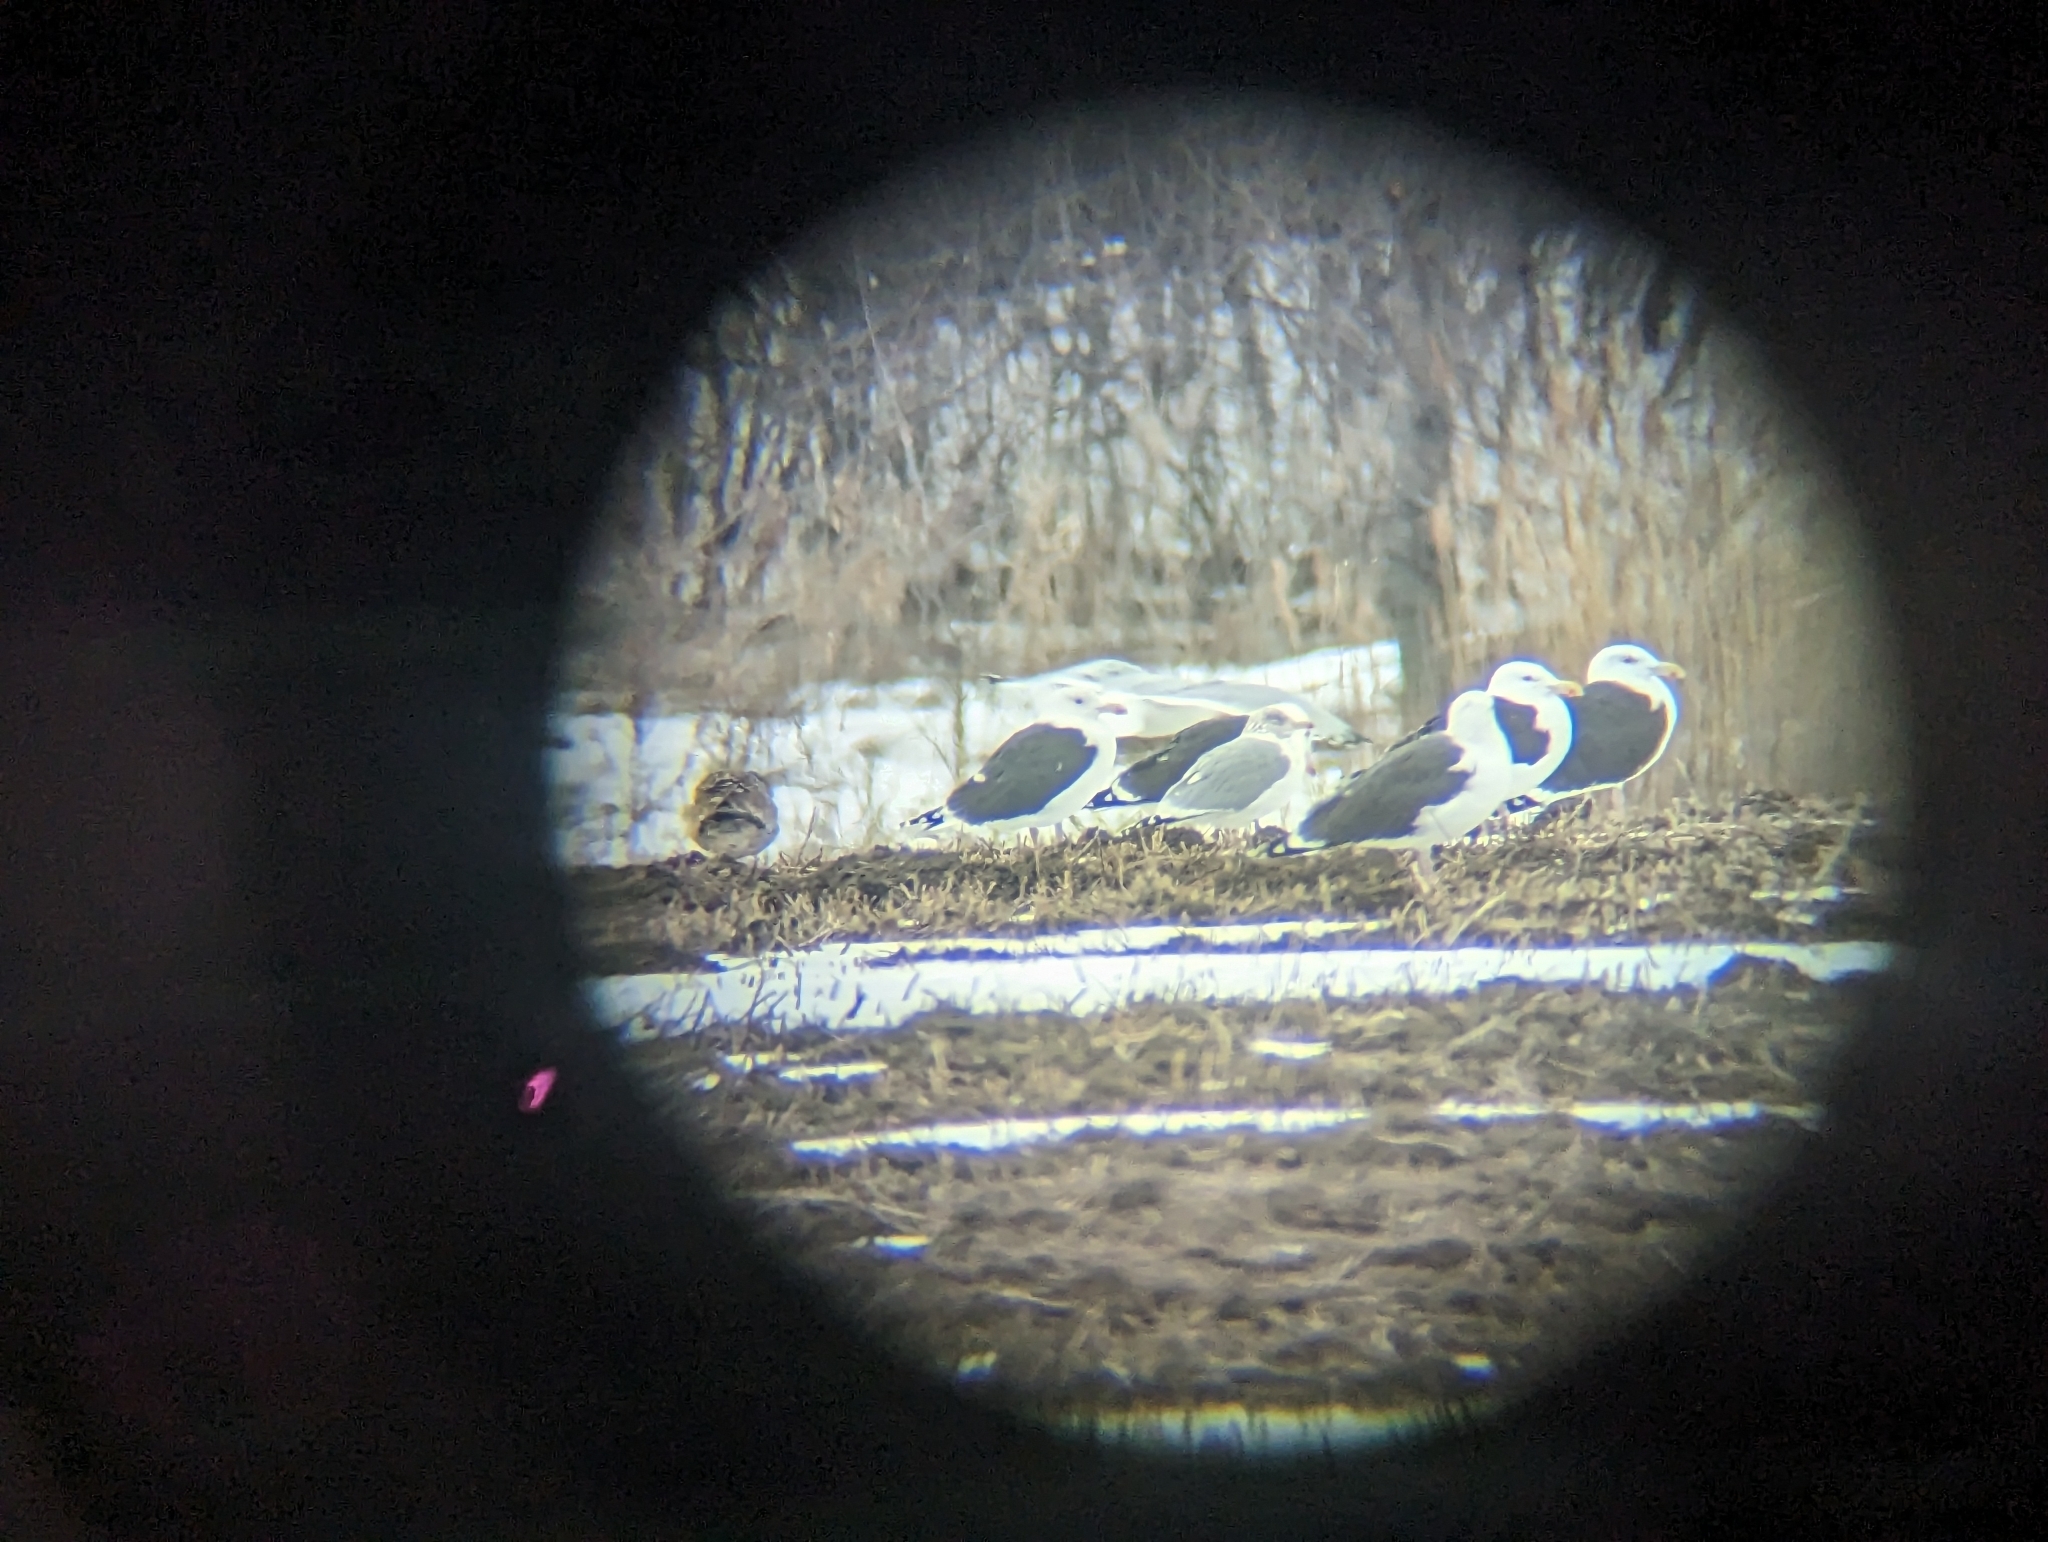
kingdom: Animalia
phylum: Chordata
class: Aves
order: Charadriiformes
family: Laridae
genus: Larus
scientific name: Larus marinus
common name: Great black-backed gull
